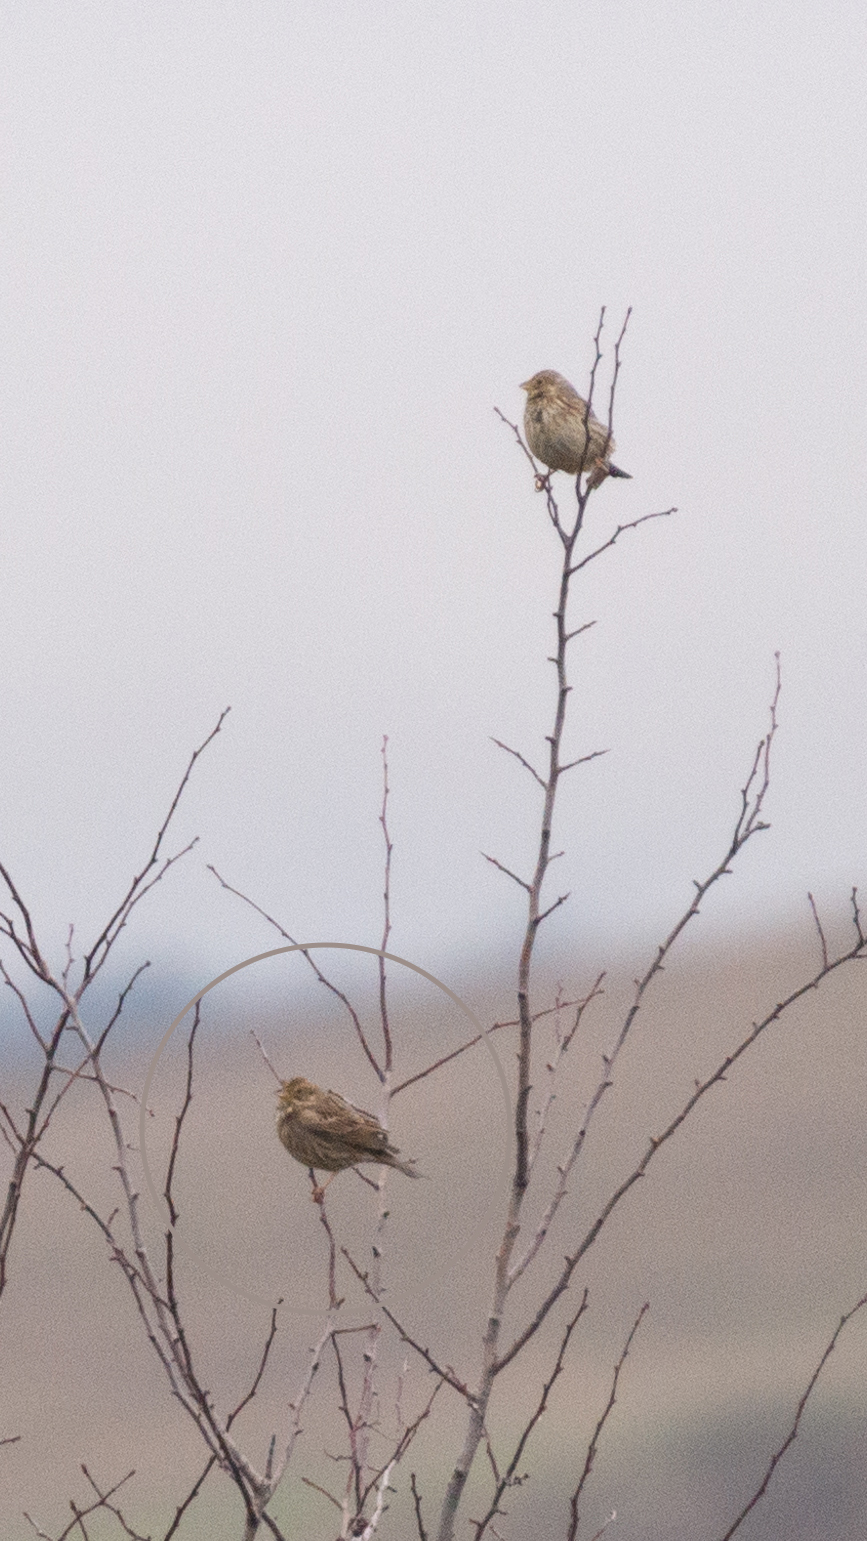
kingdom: Animalia
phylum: Chordata
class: Aves
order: Passeriformes
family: Emberizidae
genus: Emberiza
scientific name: Emberiza calandra
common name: Corn bunting
